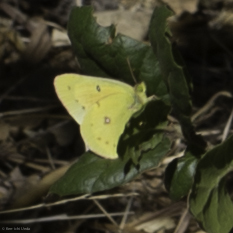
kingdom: Animalia
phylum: Arthropoda
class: Insecta
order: Lepidoptera
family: Pieridae
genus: Colias
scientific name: Colias eurytheme
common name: Alfalfa butterfly
